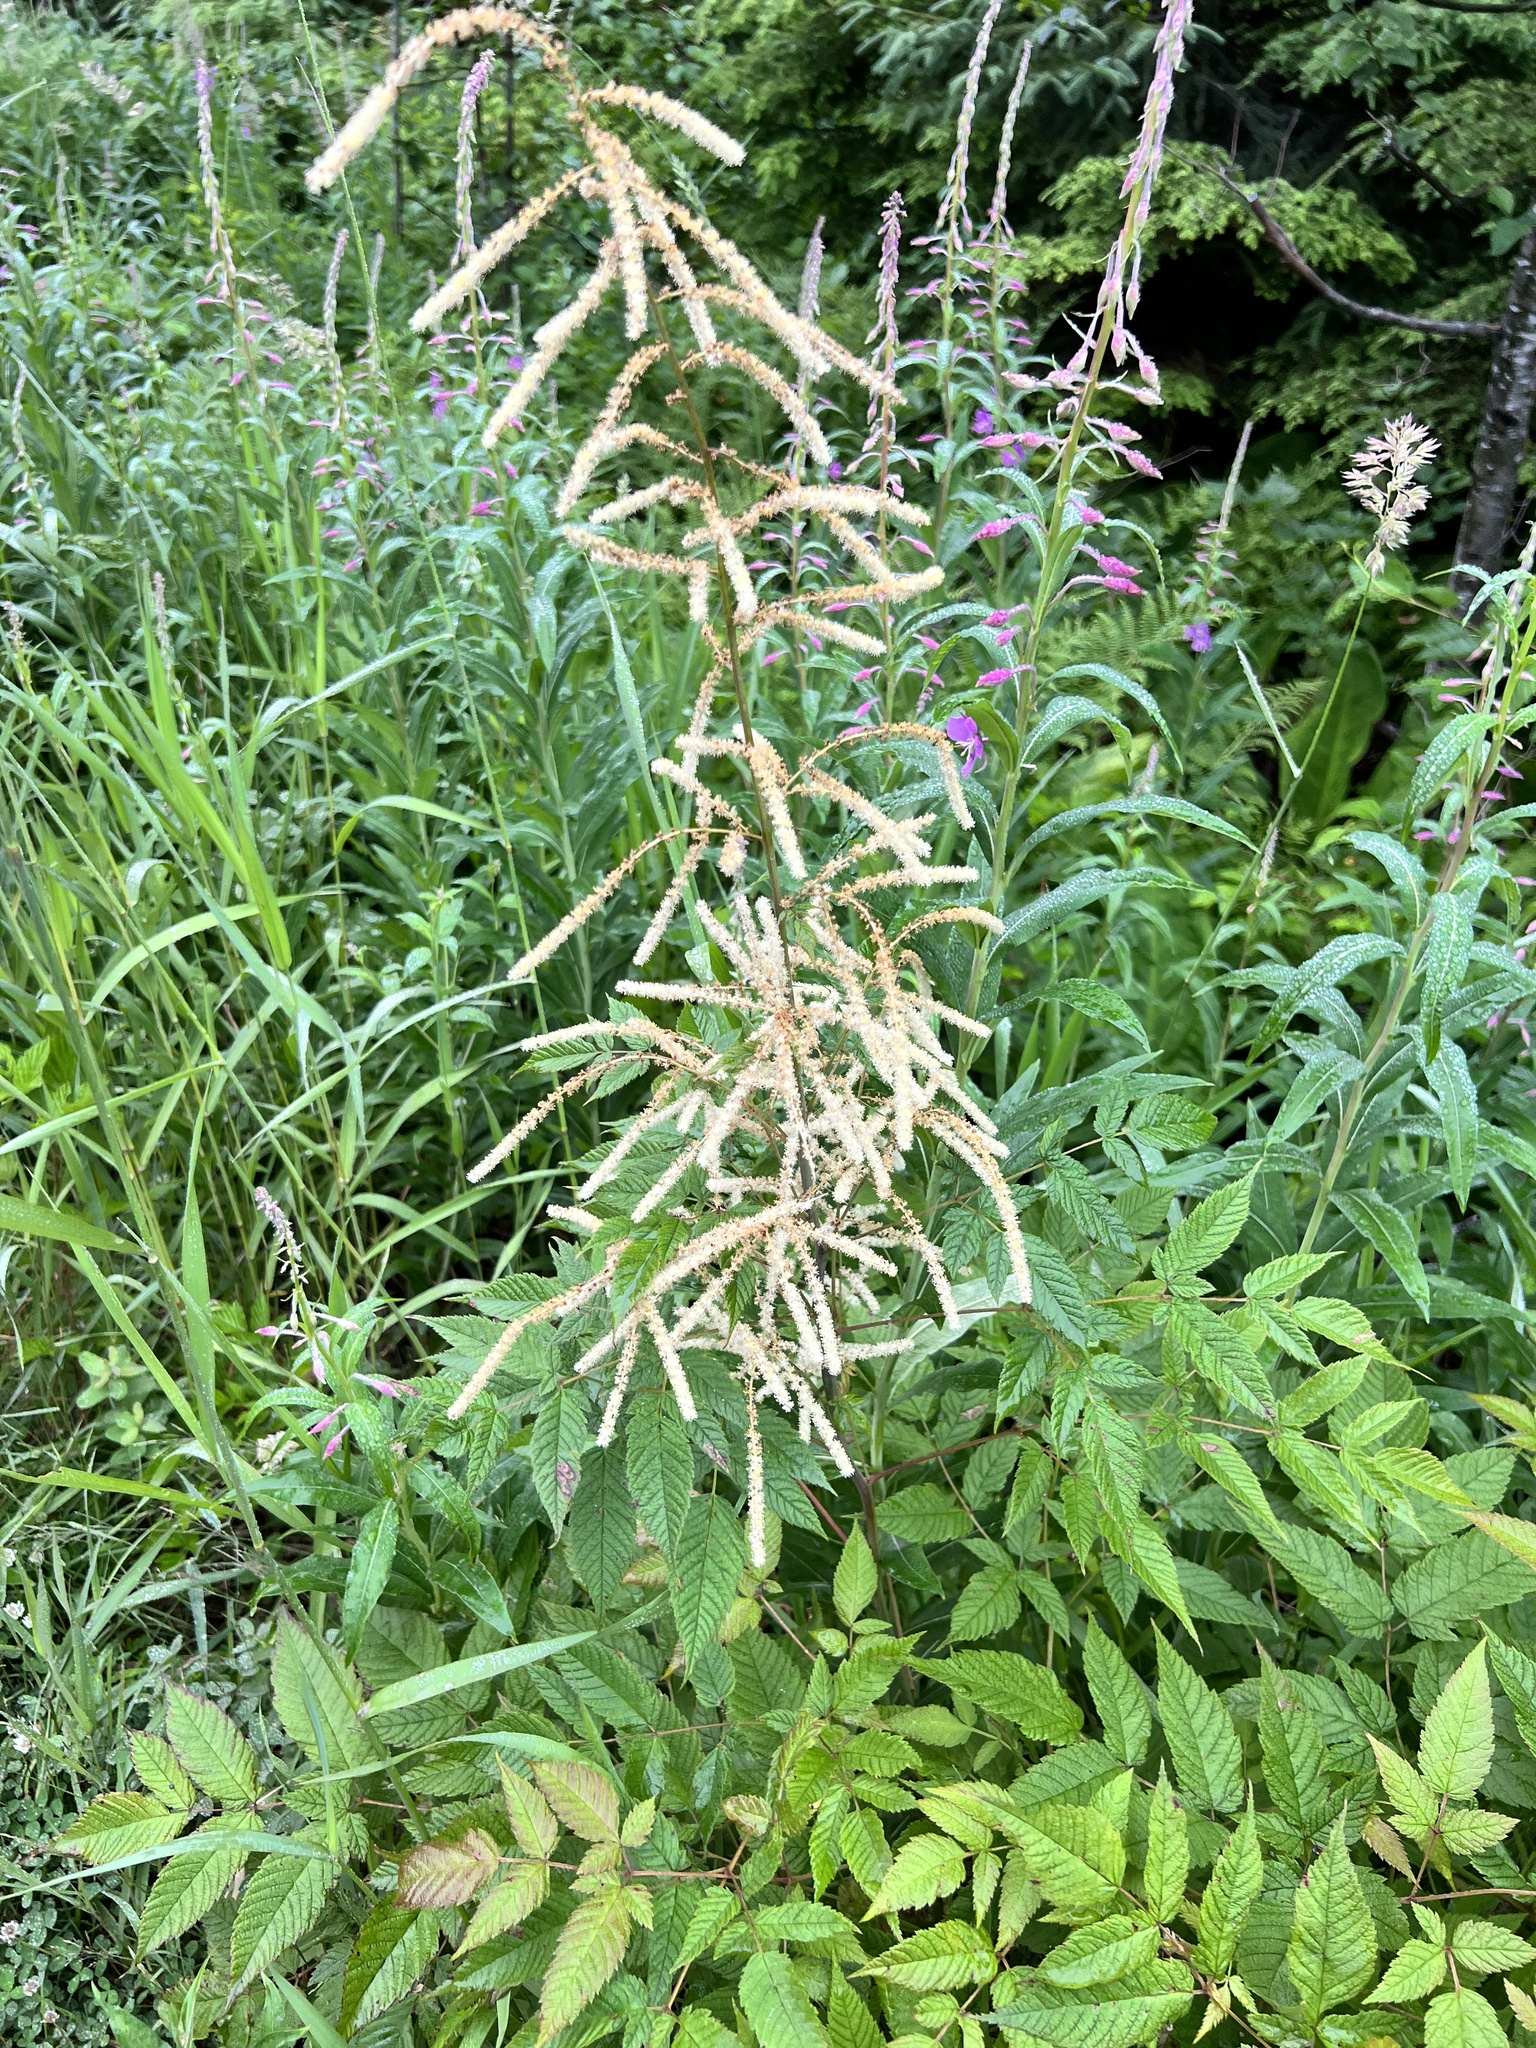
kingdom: Plantae
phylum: Tracheophyta
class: Magnoliopsida
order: Rosales
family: Rosaceae
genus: Aruncus
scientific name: Aruncus dioicus
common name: Buck's-beard
